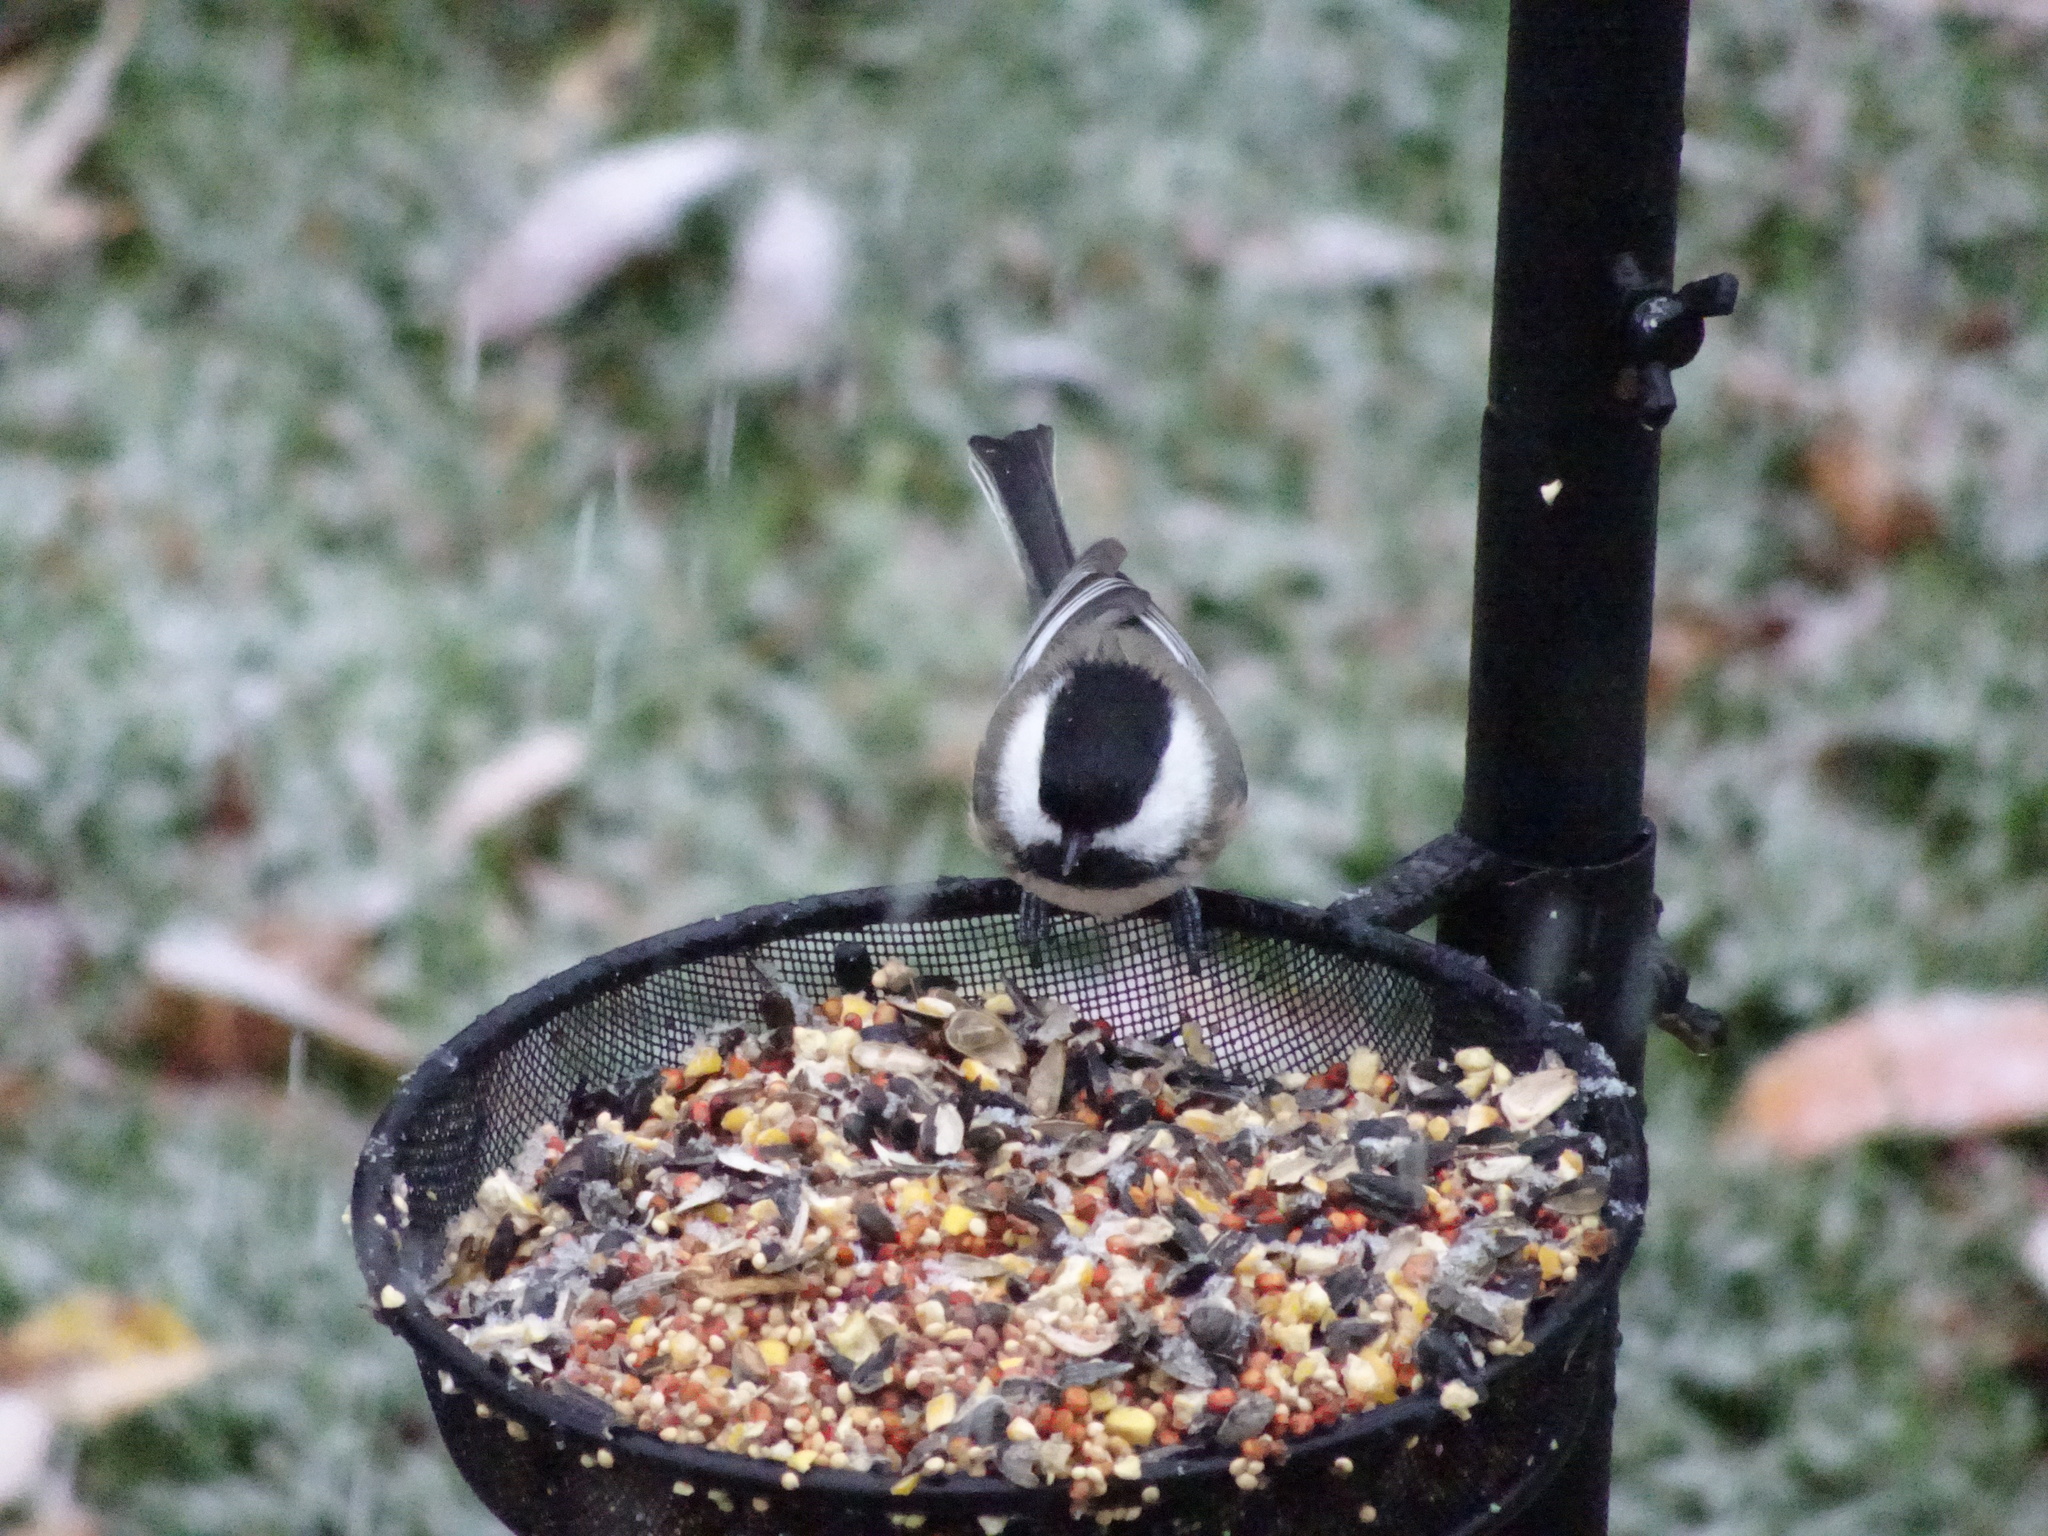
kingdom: Animalia
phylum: Chordata
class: Aves
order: Passeriformes
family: Paridae
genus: Poecile
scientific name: Poecile atricapillus
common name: Black-capped chickadee
